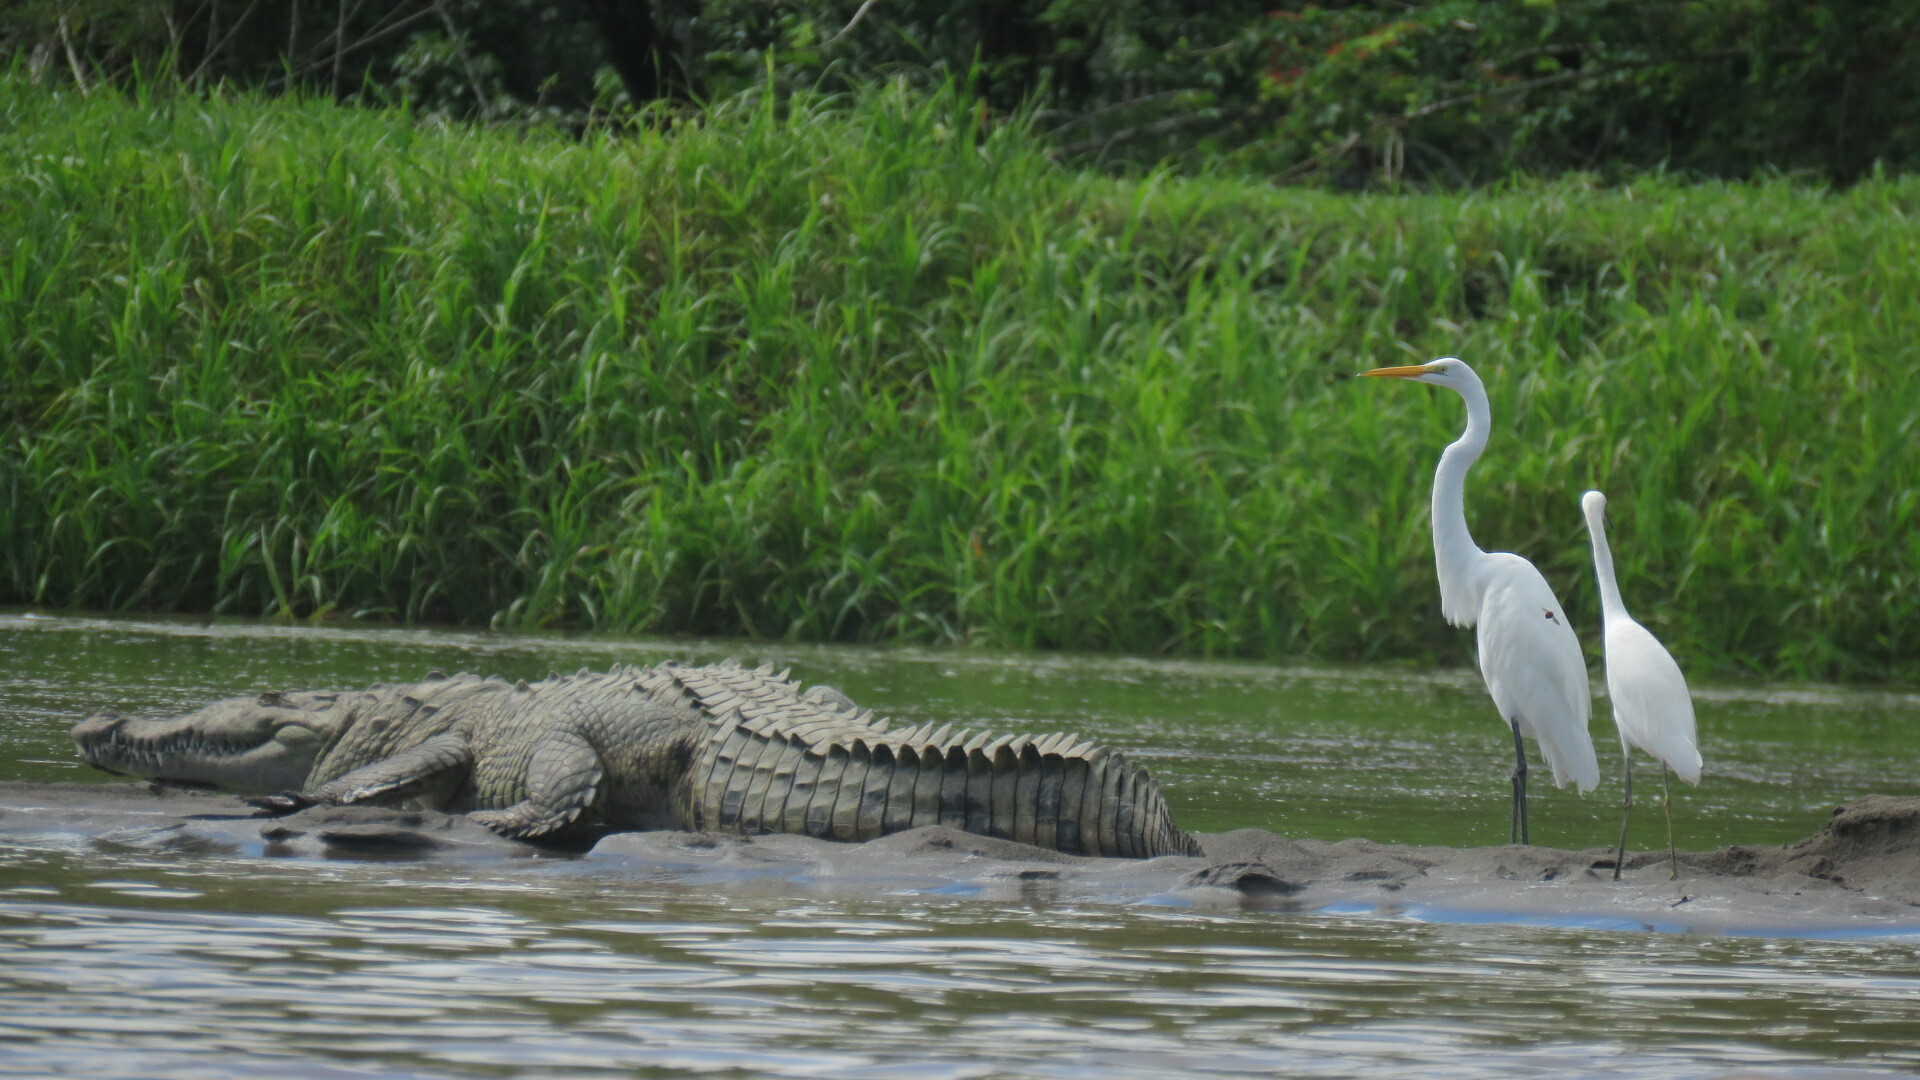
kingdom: Animalia
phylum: Chordata
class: Crocodylia
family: Crocodylidae
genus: Crocodylus
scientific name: Crocodylus acutus
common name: American crocodile
